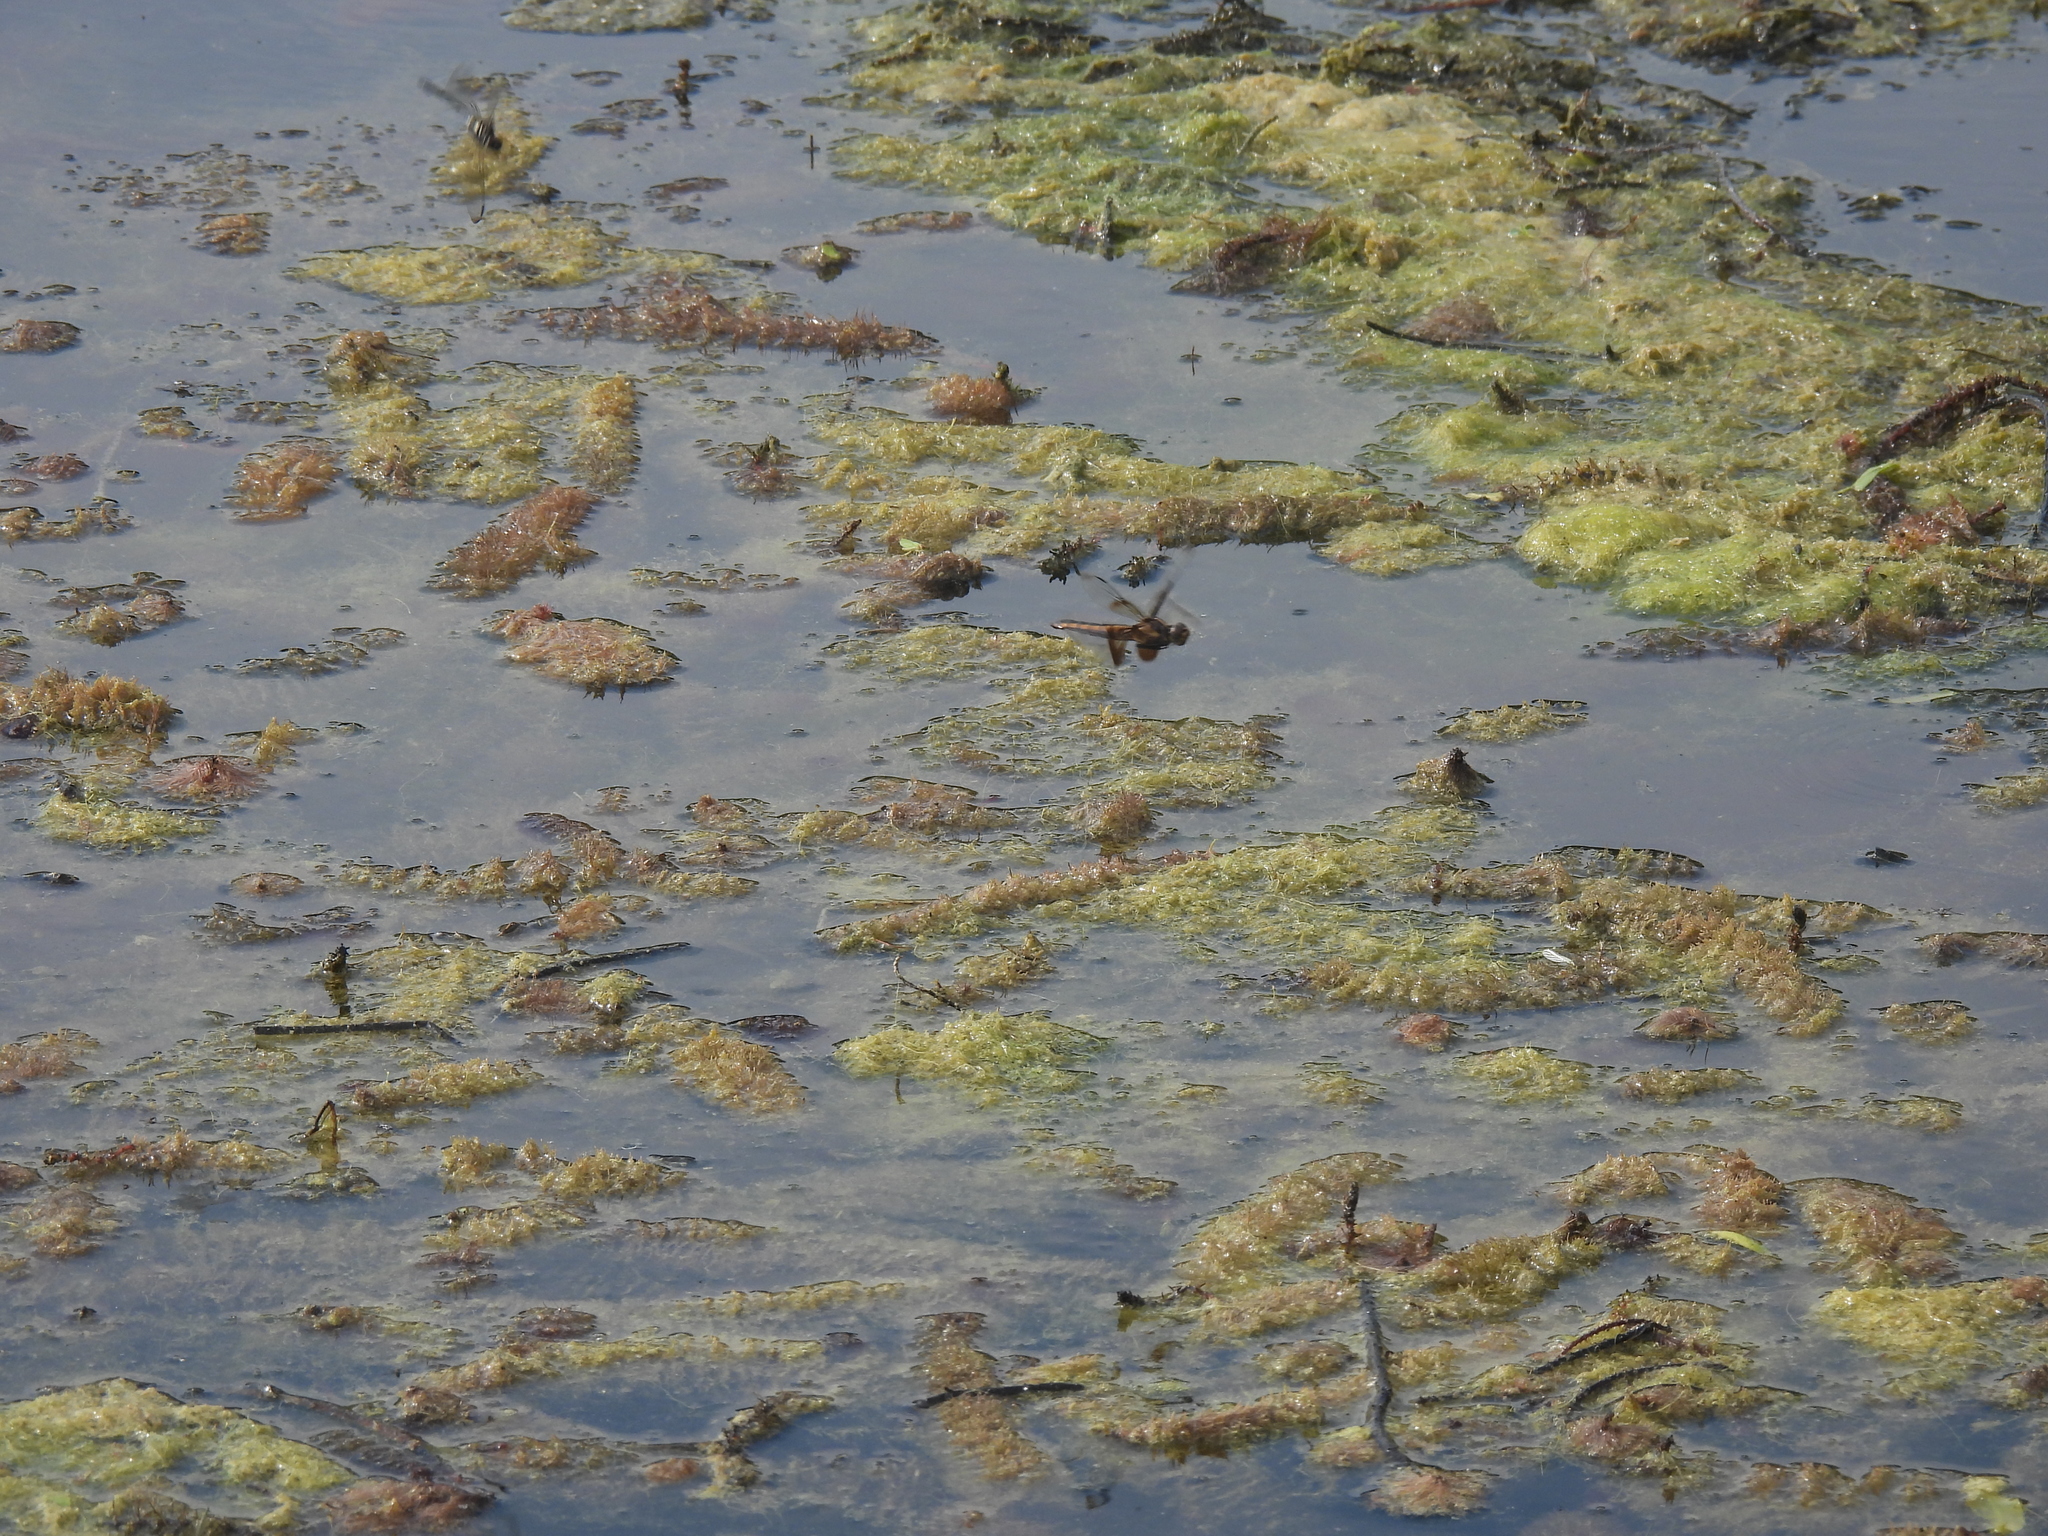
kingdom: Animalia
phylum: Arthropoda
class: Insecta
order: Odonata
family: Libellulidae
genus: Libellula
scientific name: Libellula luctuosa
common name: Widow skimmer
